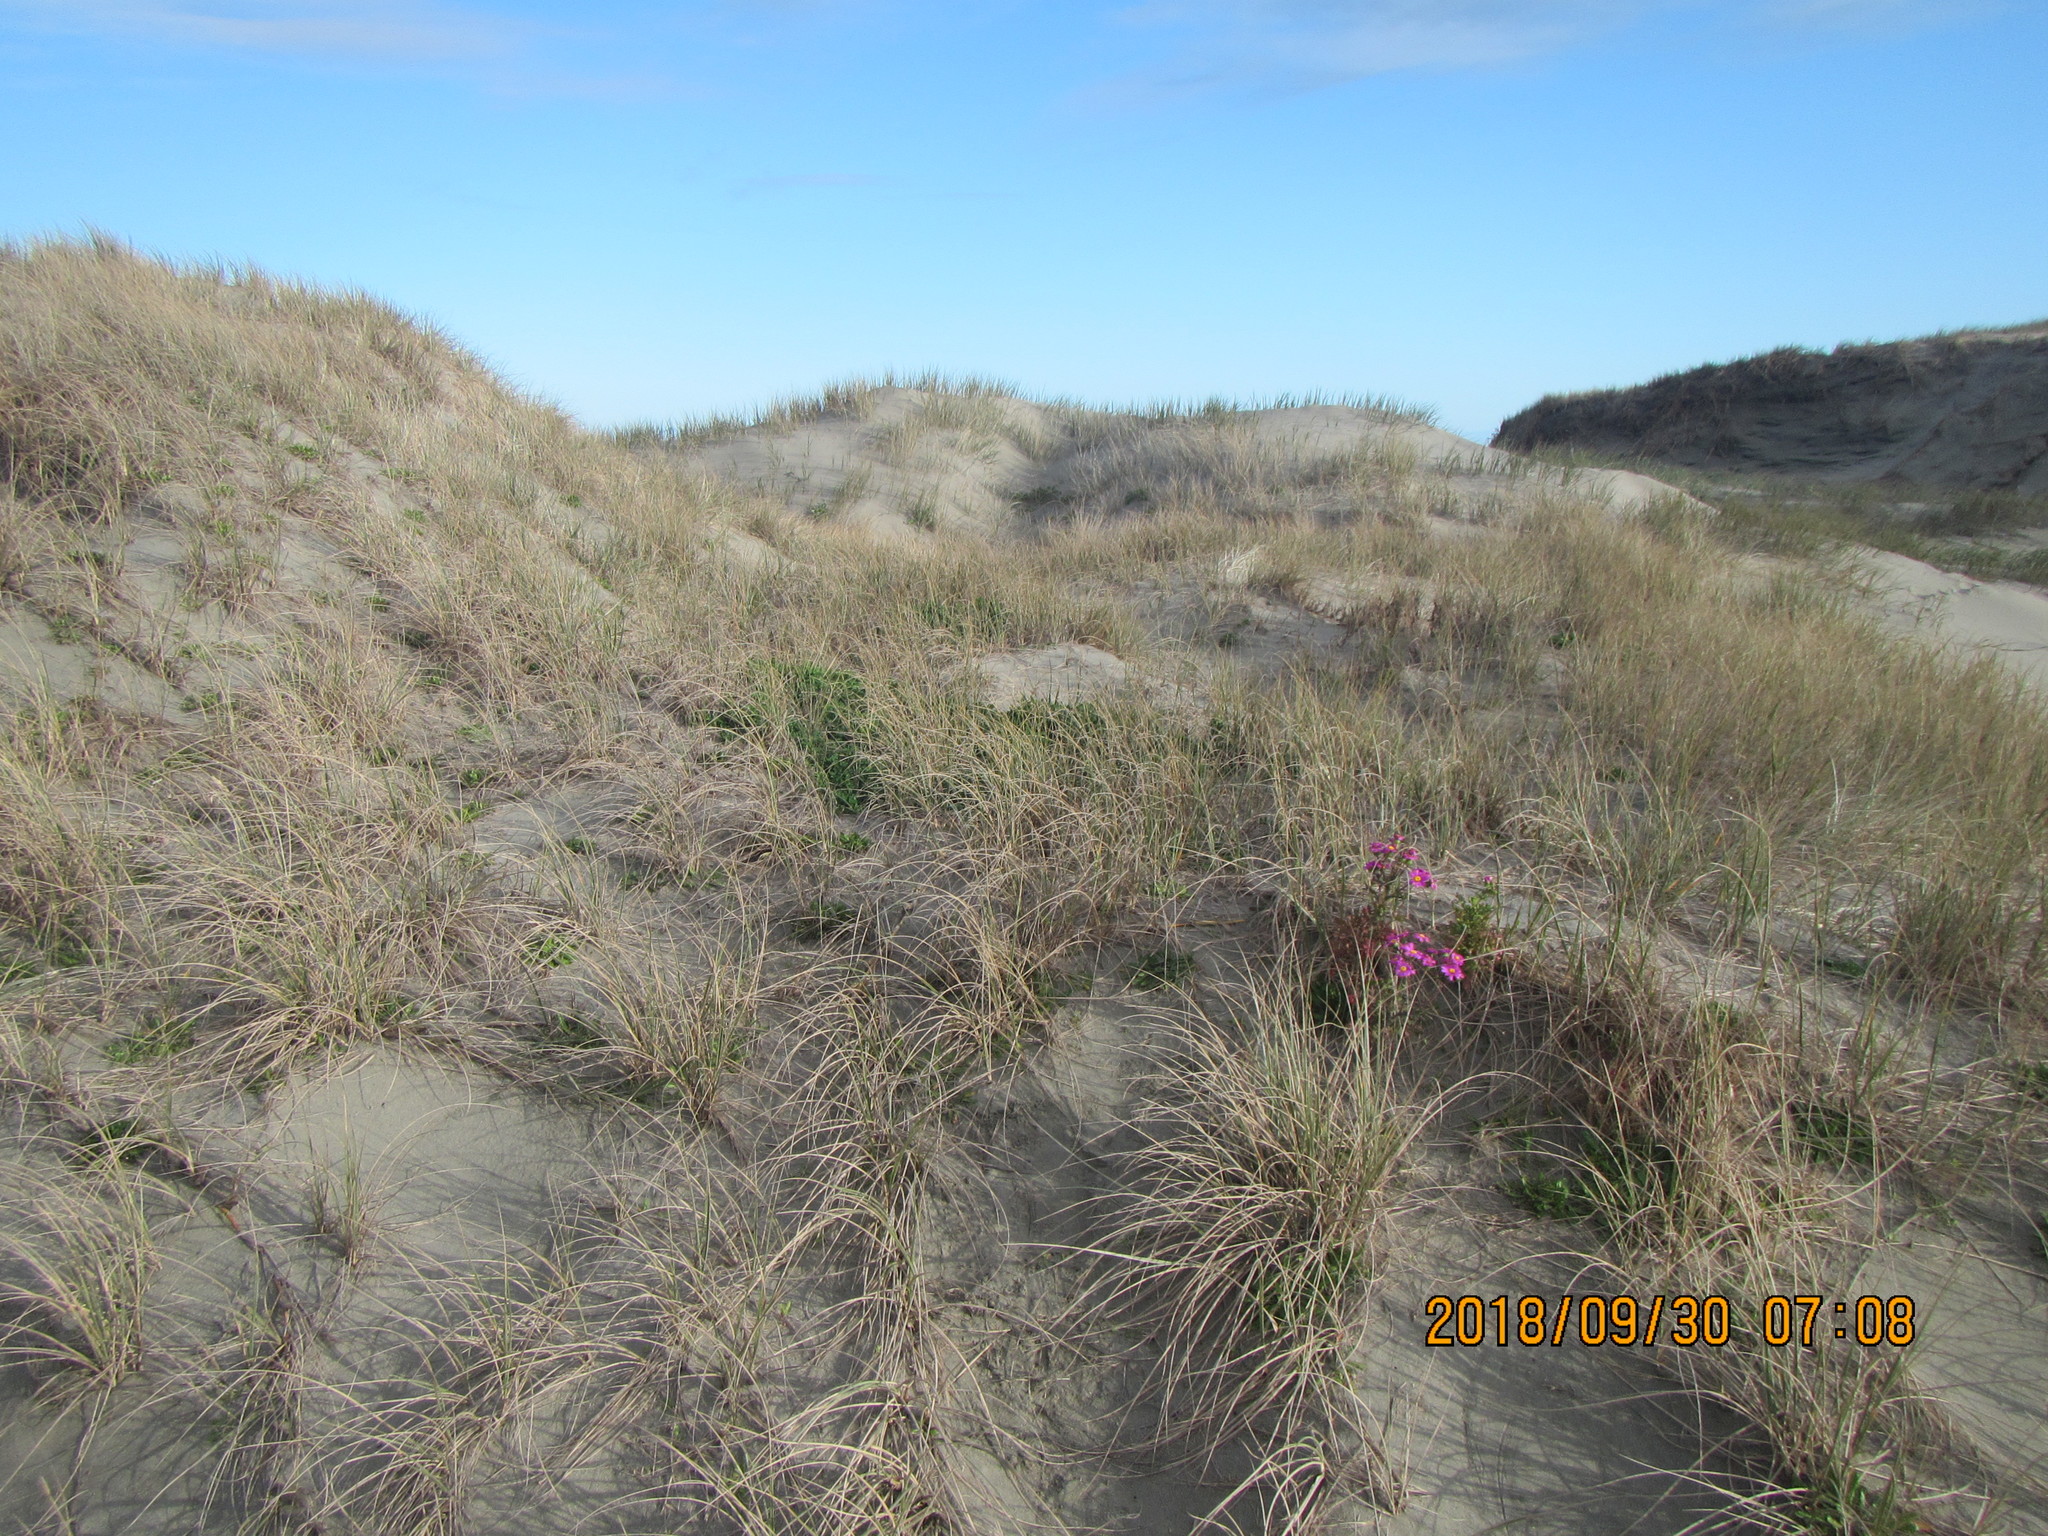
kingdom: Plantae
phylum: Tracheophyta
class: Magnoliopsida
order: Asterales
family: Asteraceae
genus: Senecio
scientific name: Senecio elegans
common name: Purple groundsel
